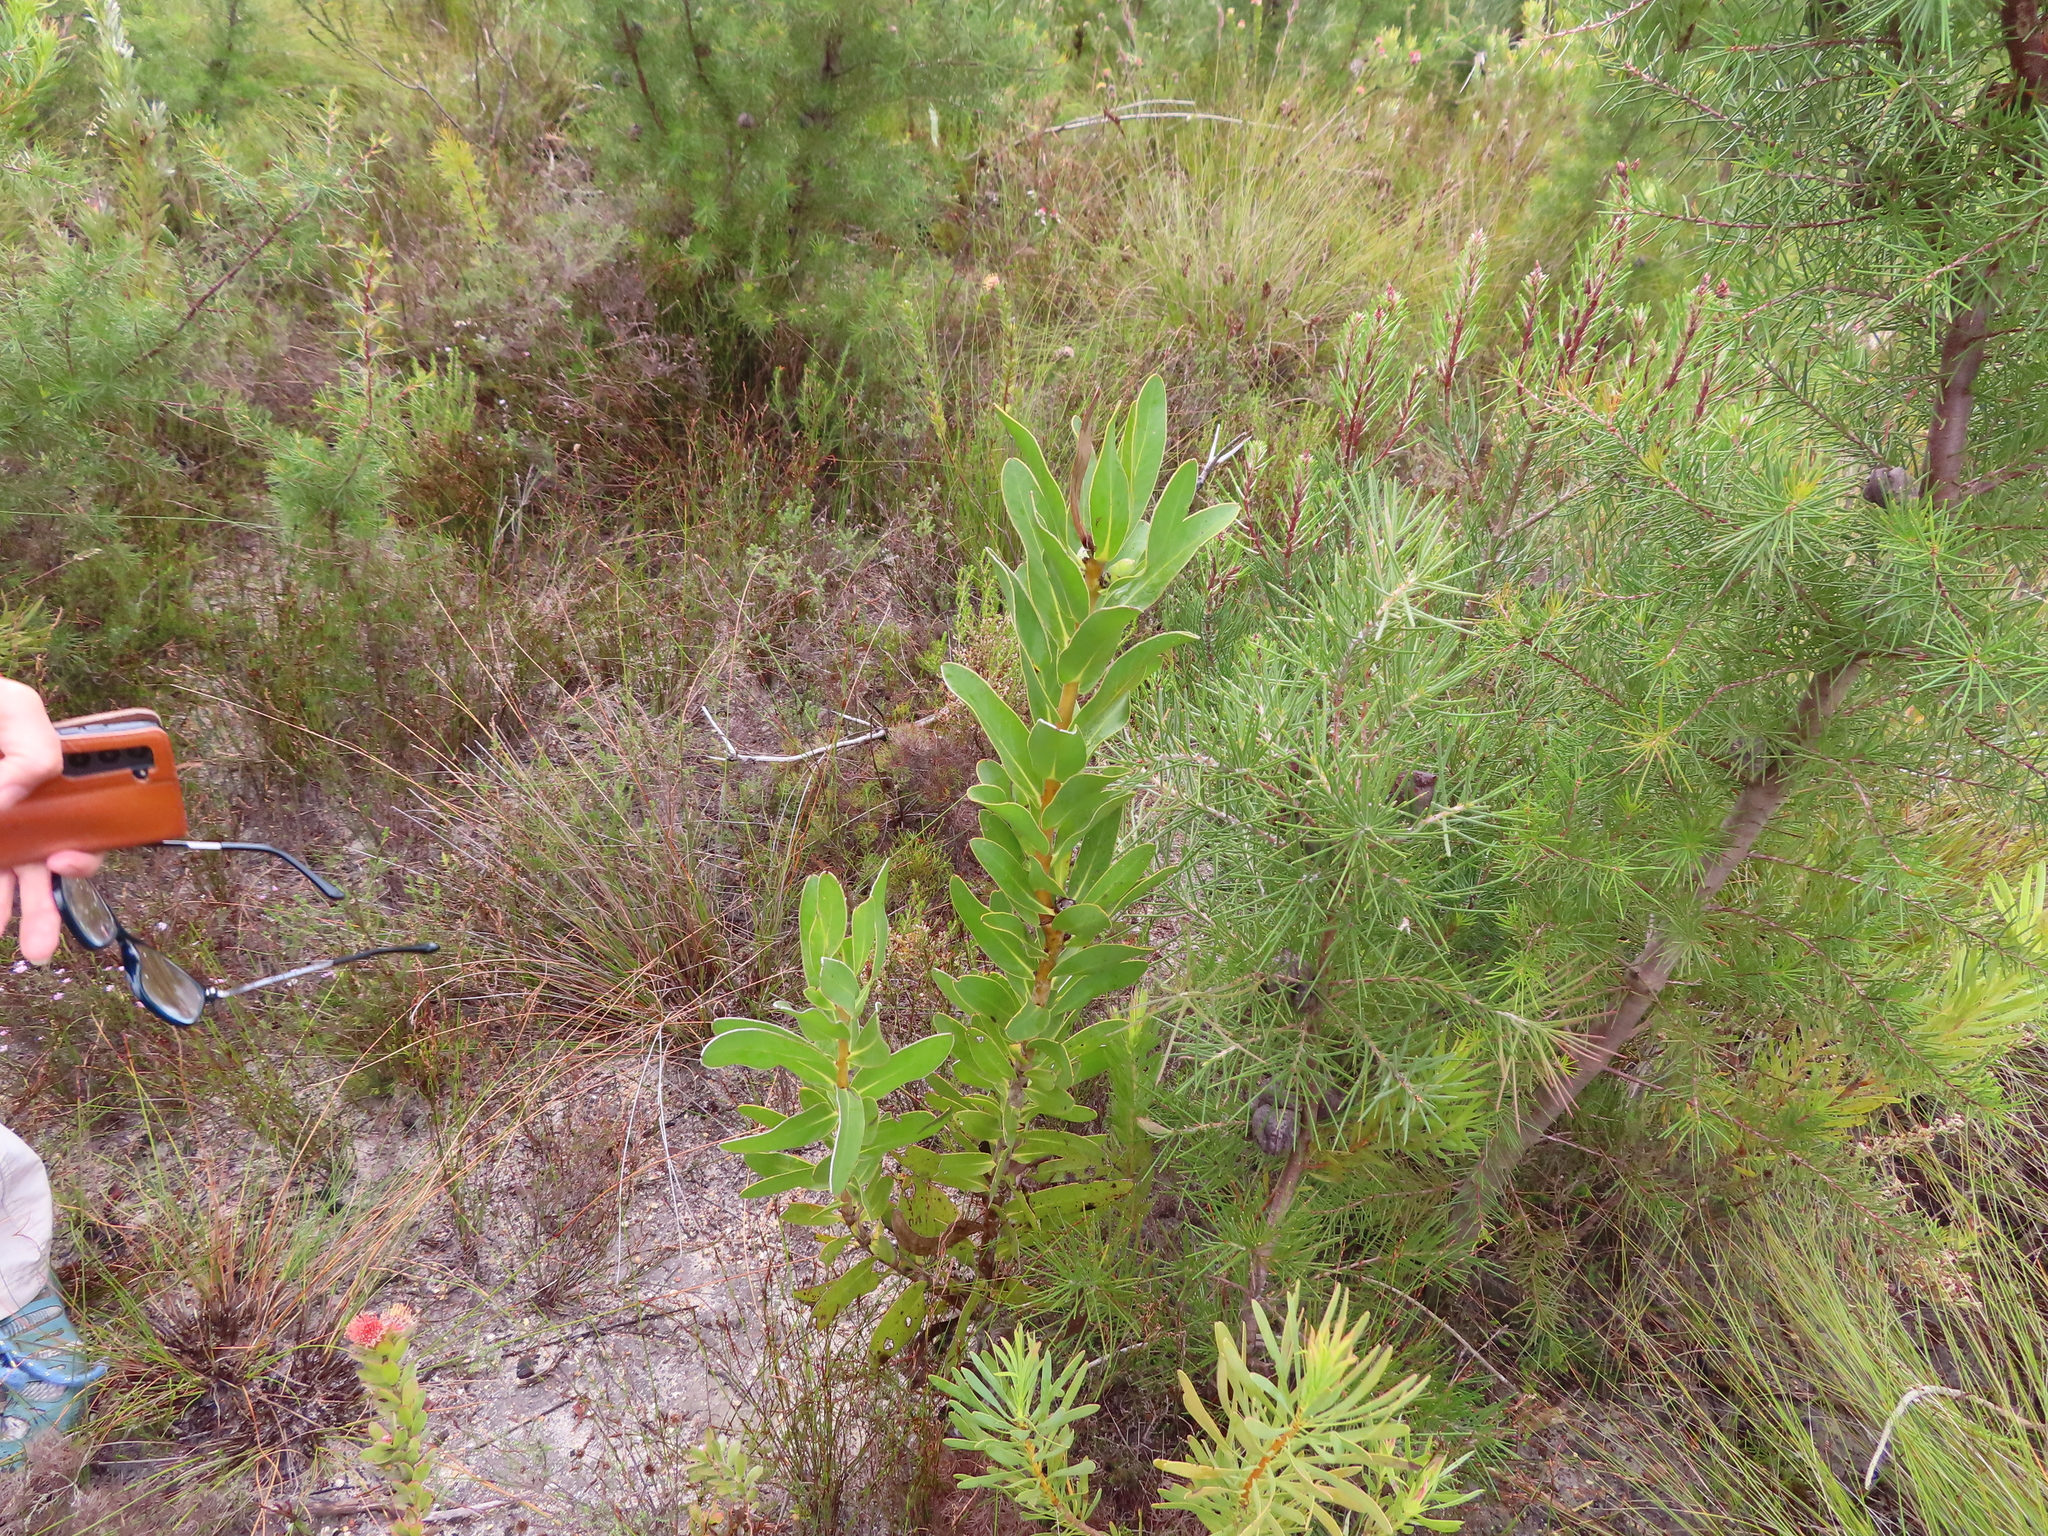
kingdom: Plantae
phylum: Tracheophyta
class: Magnoliopsida
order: Proteales
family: Proteaceae
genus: Protea
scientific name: Protea compacta
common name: Bot river protea
